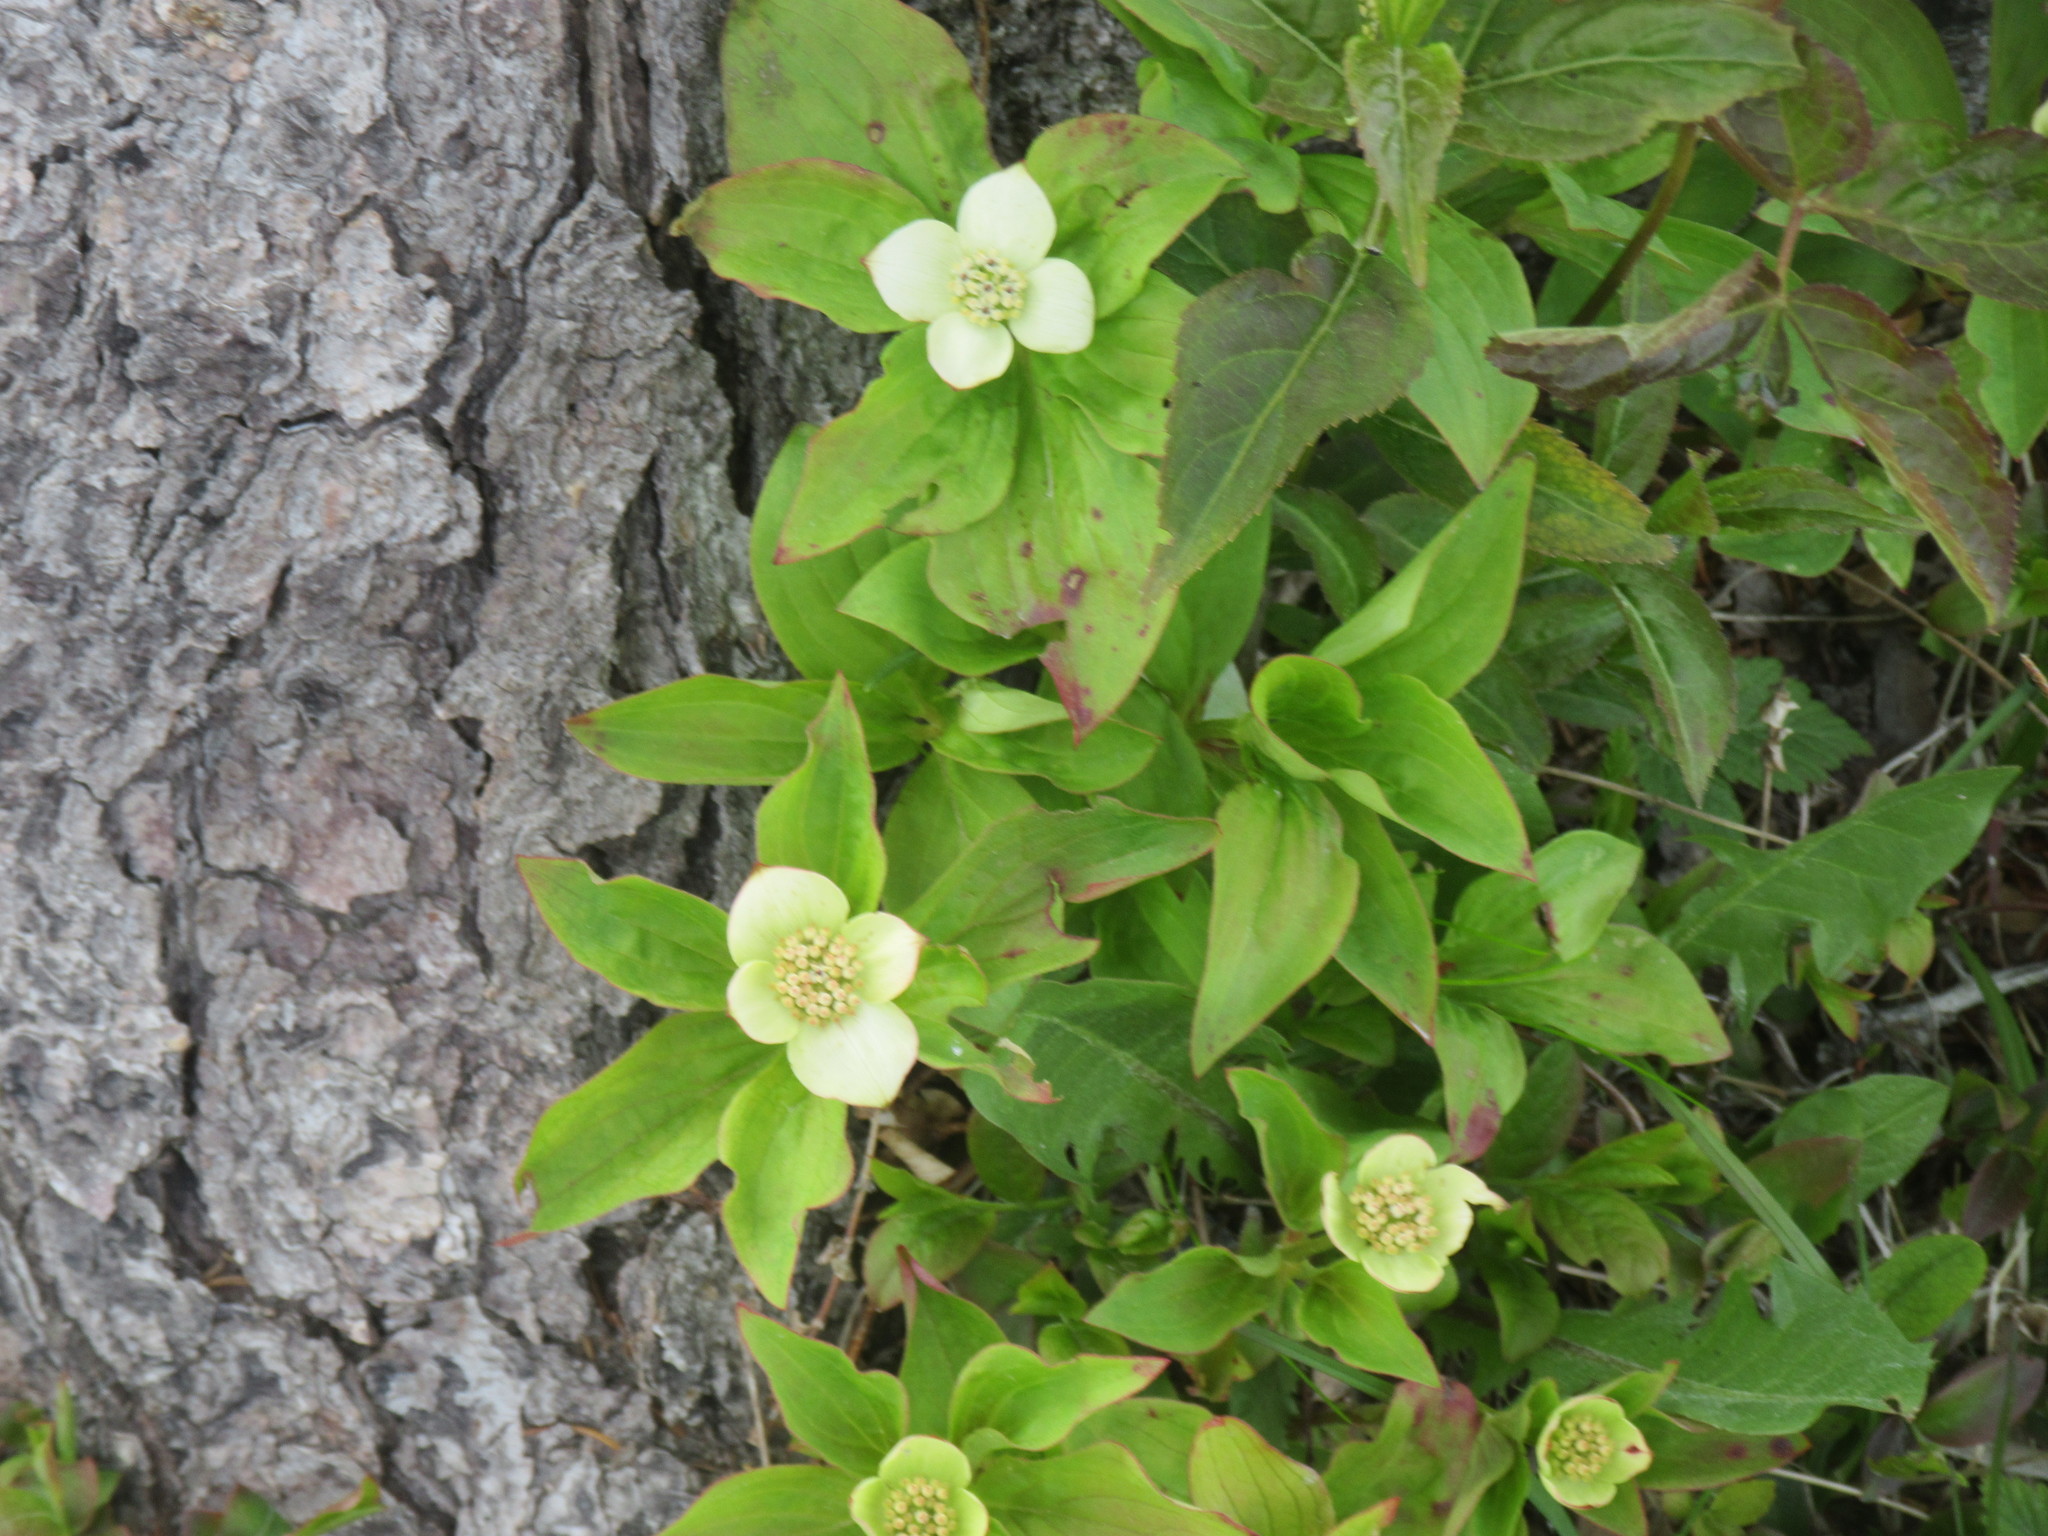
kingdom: Plantae
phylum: Tracheophyta
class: Magnoliopsida
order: Cornales
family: Cornaceae
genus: Cornus
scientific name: Cornus canadensis
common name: Creeping dogwood
